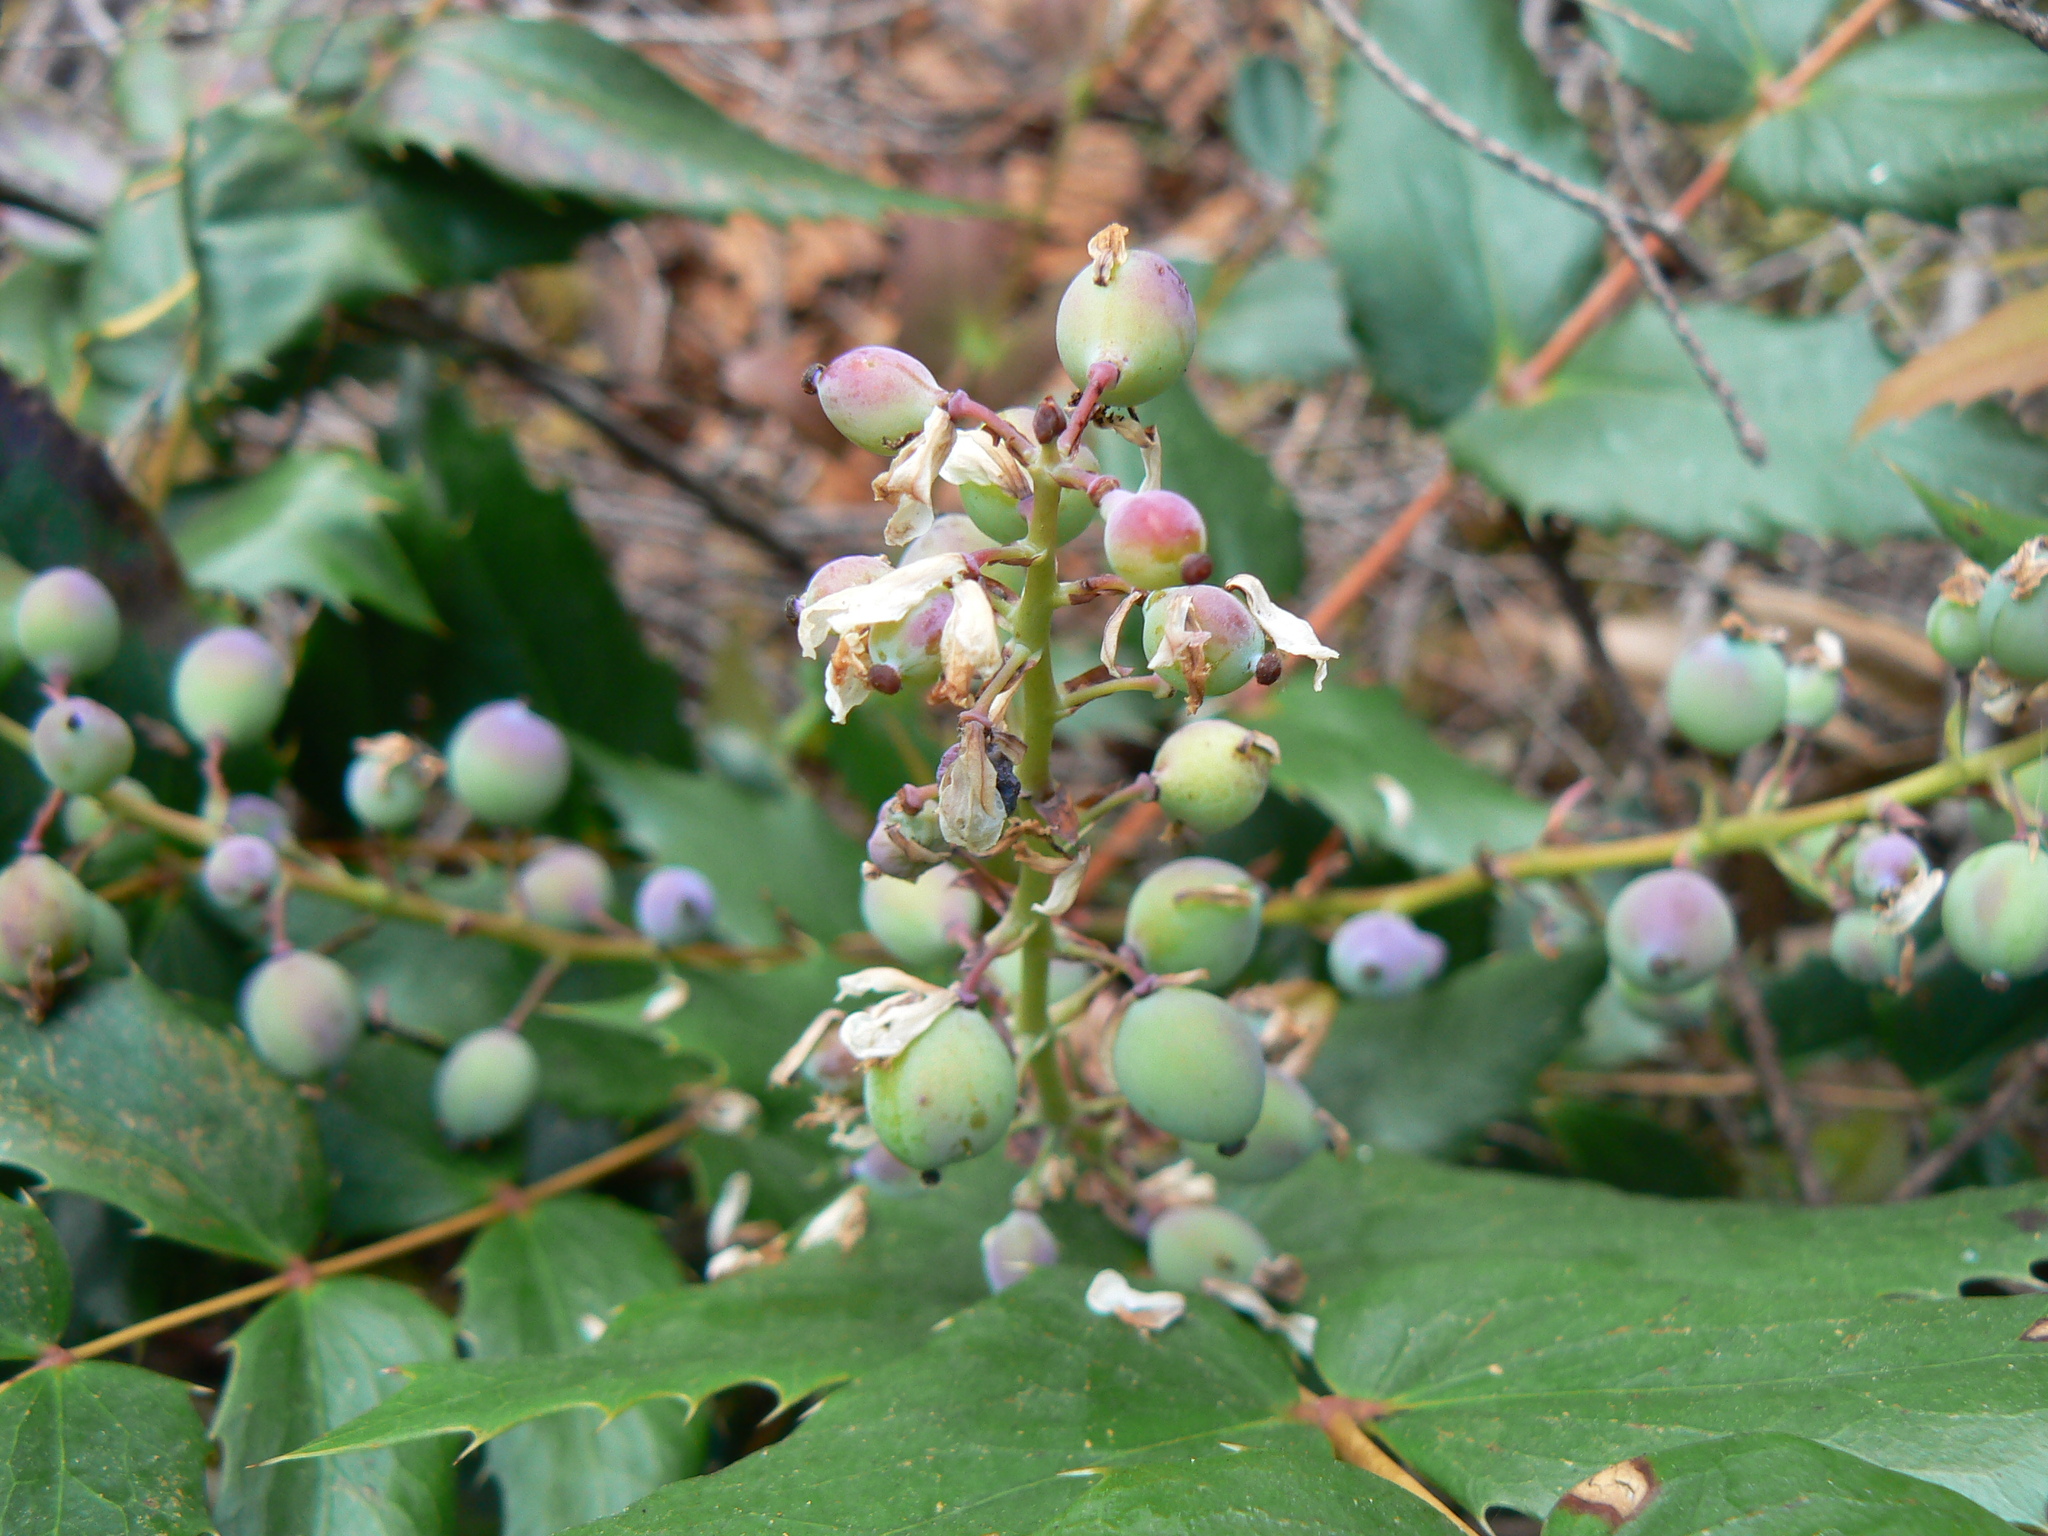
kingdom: Plantae
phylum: Tracheophyta
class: Magnoliopsida
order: Ranunculales
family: Berberidaceae
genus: Mahonia
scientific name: Mahonia nervosa
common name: Cascade oregon-grape
